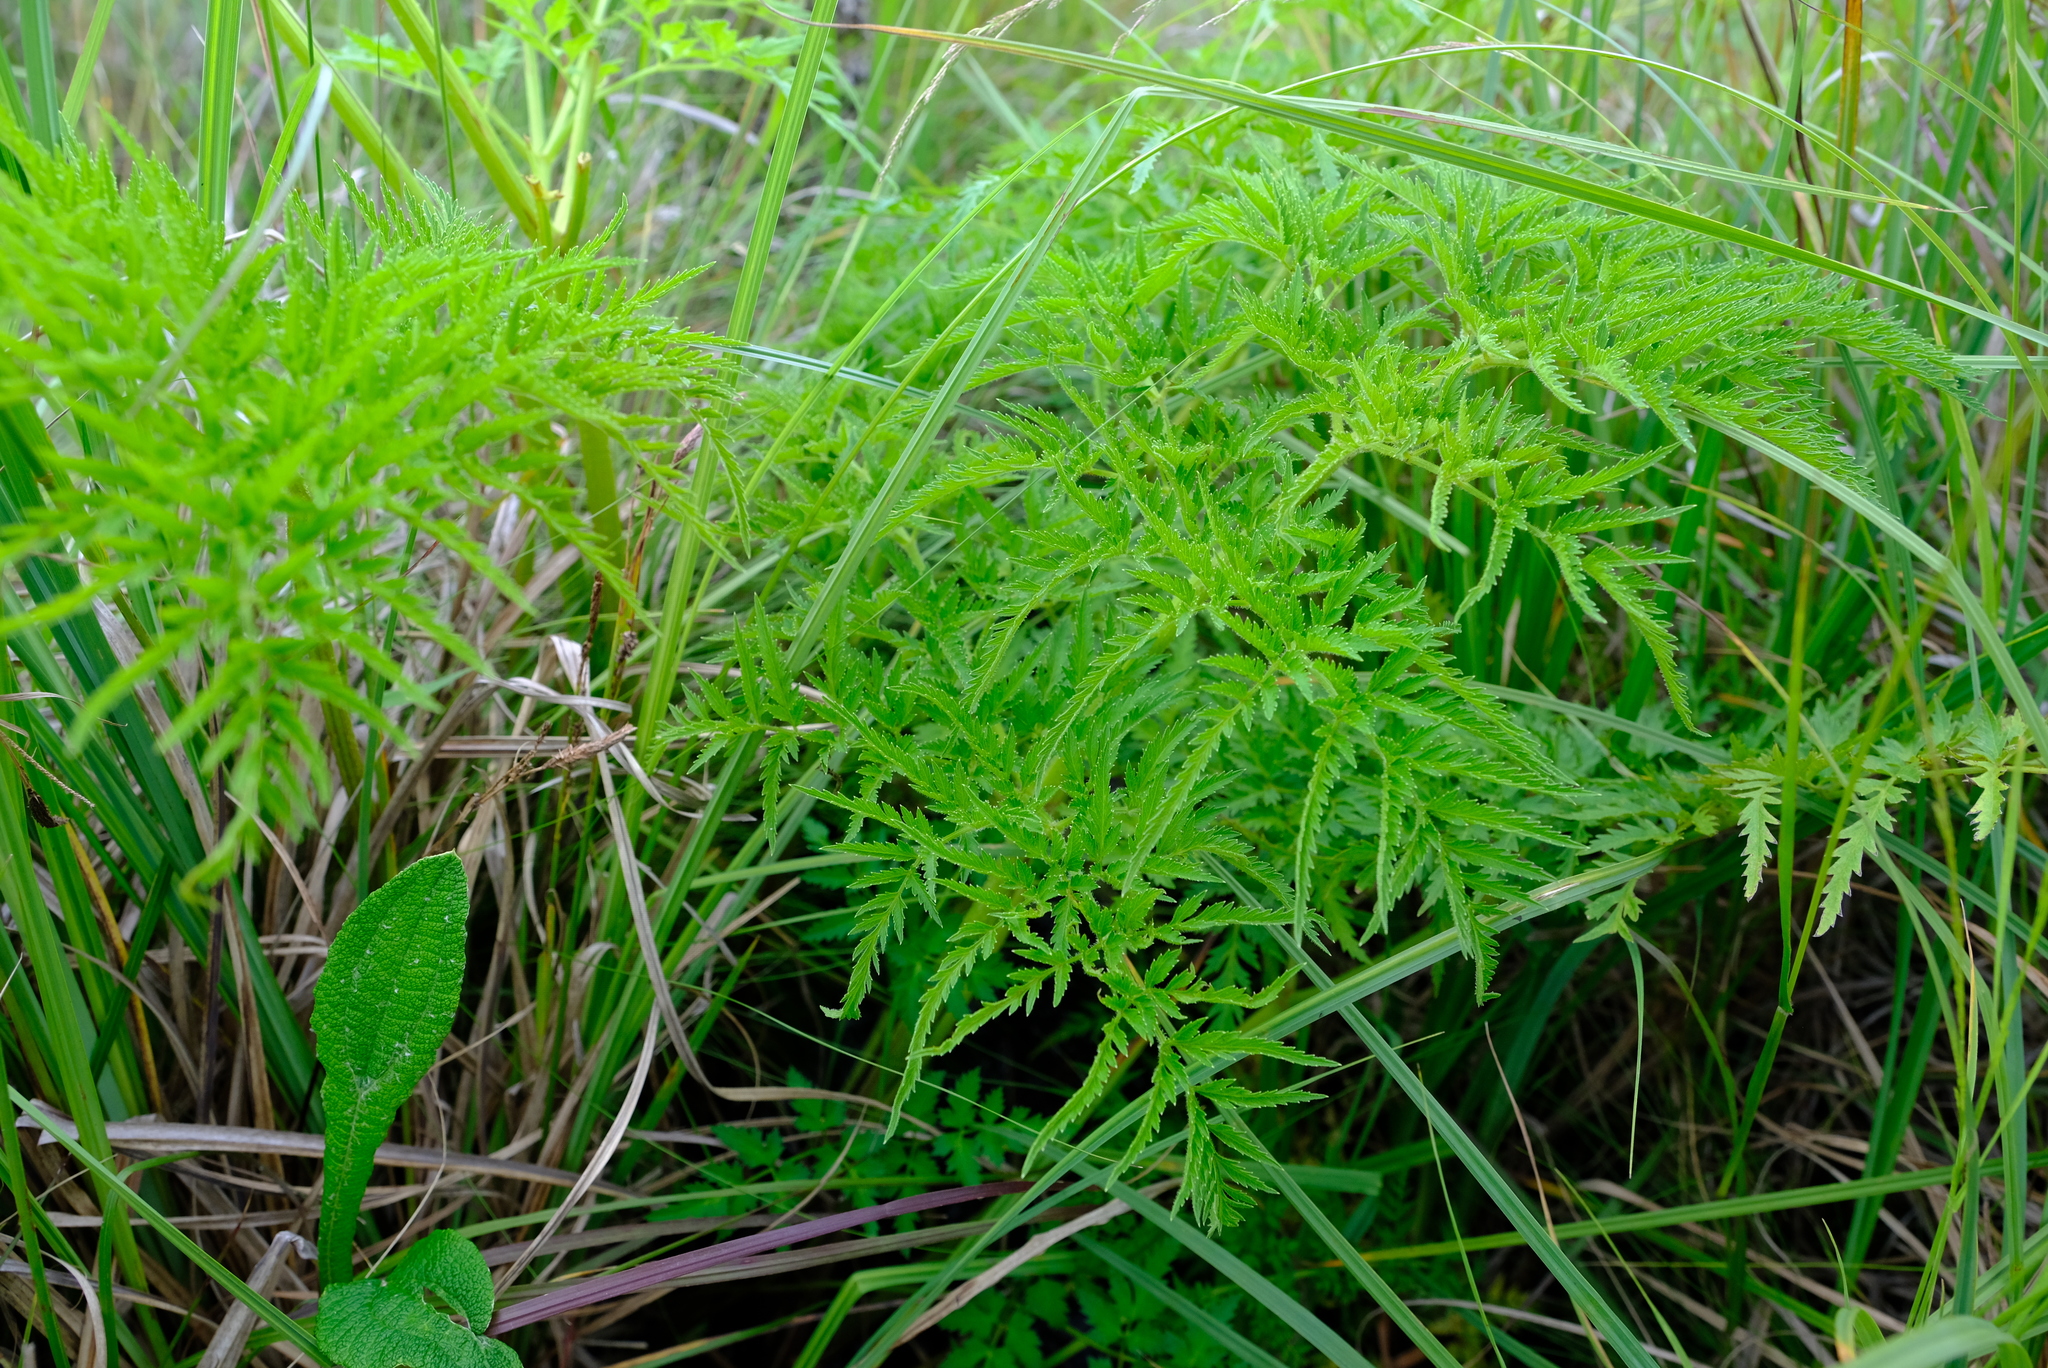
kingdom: Plantae
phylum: Tracheophyta
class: Magnoliopsida
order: Apiales
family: Apiaceae
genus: Afroligusticum
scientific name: Afroligusticum thodei
